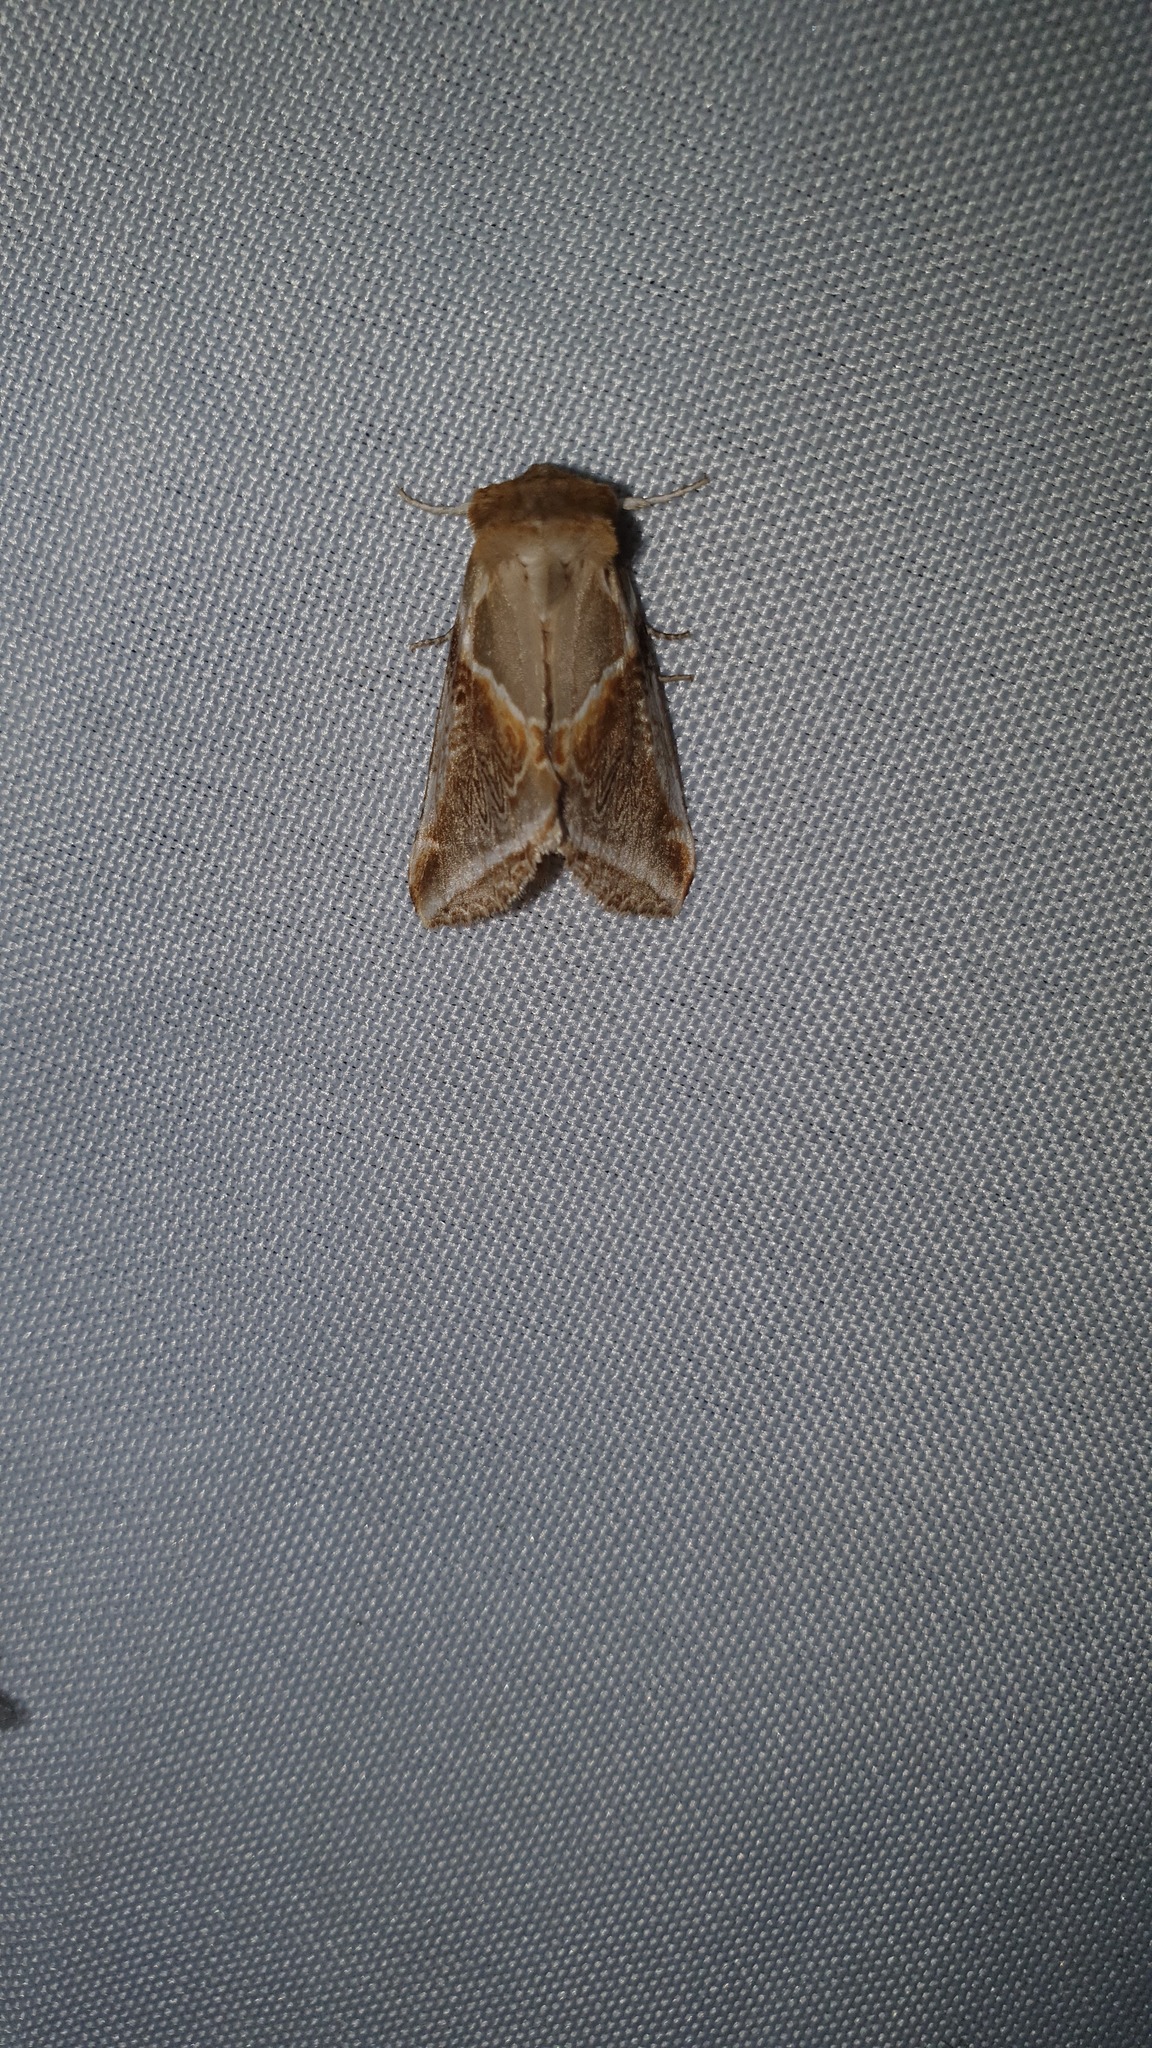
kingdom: Animalia
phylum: Arthropoda
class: Insecta
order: Lepidoptera
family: Drepanidae
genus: Habrosyne
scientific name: Habrosyne pyritoides
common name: Buff arches
